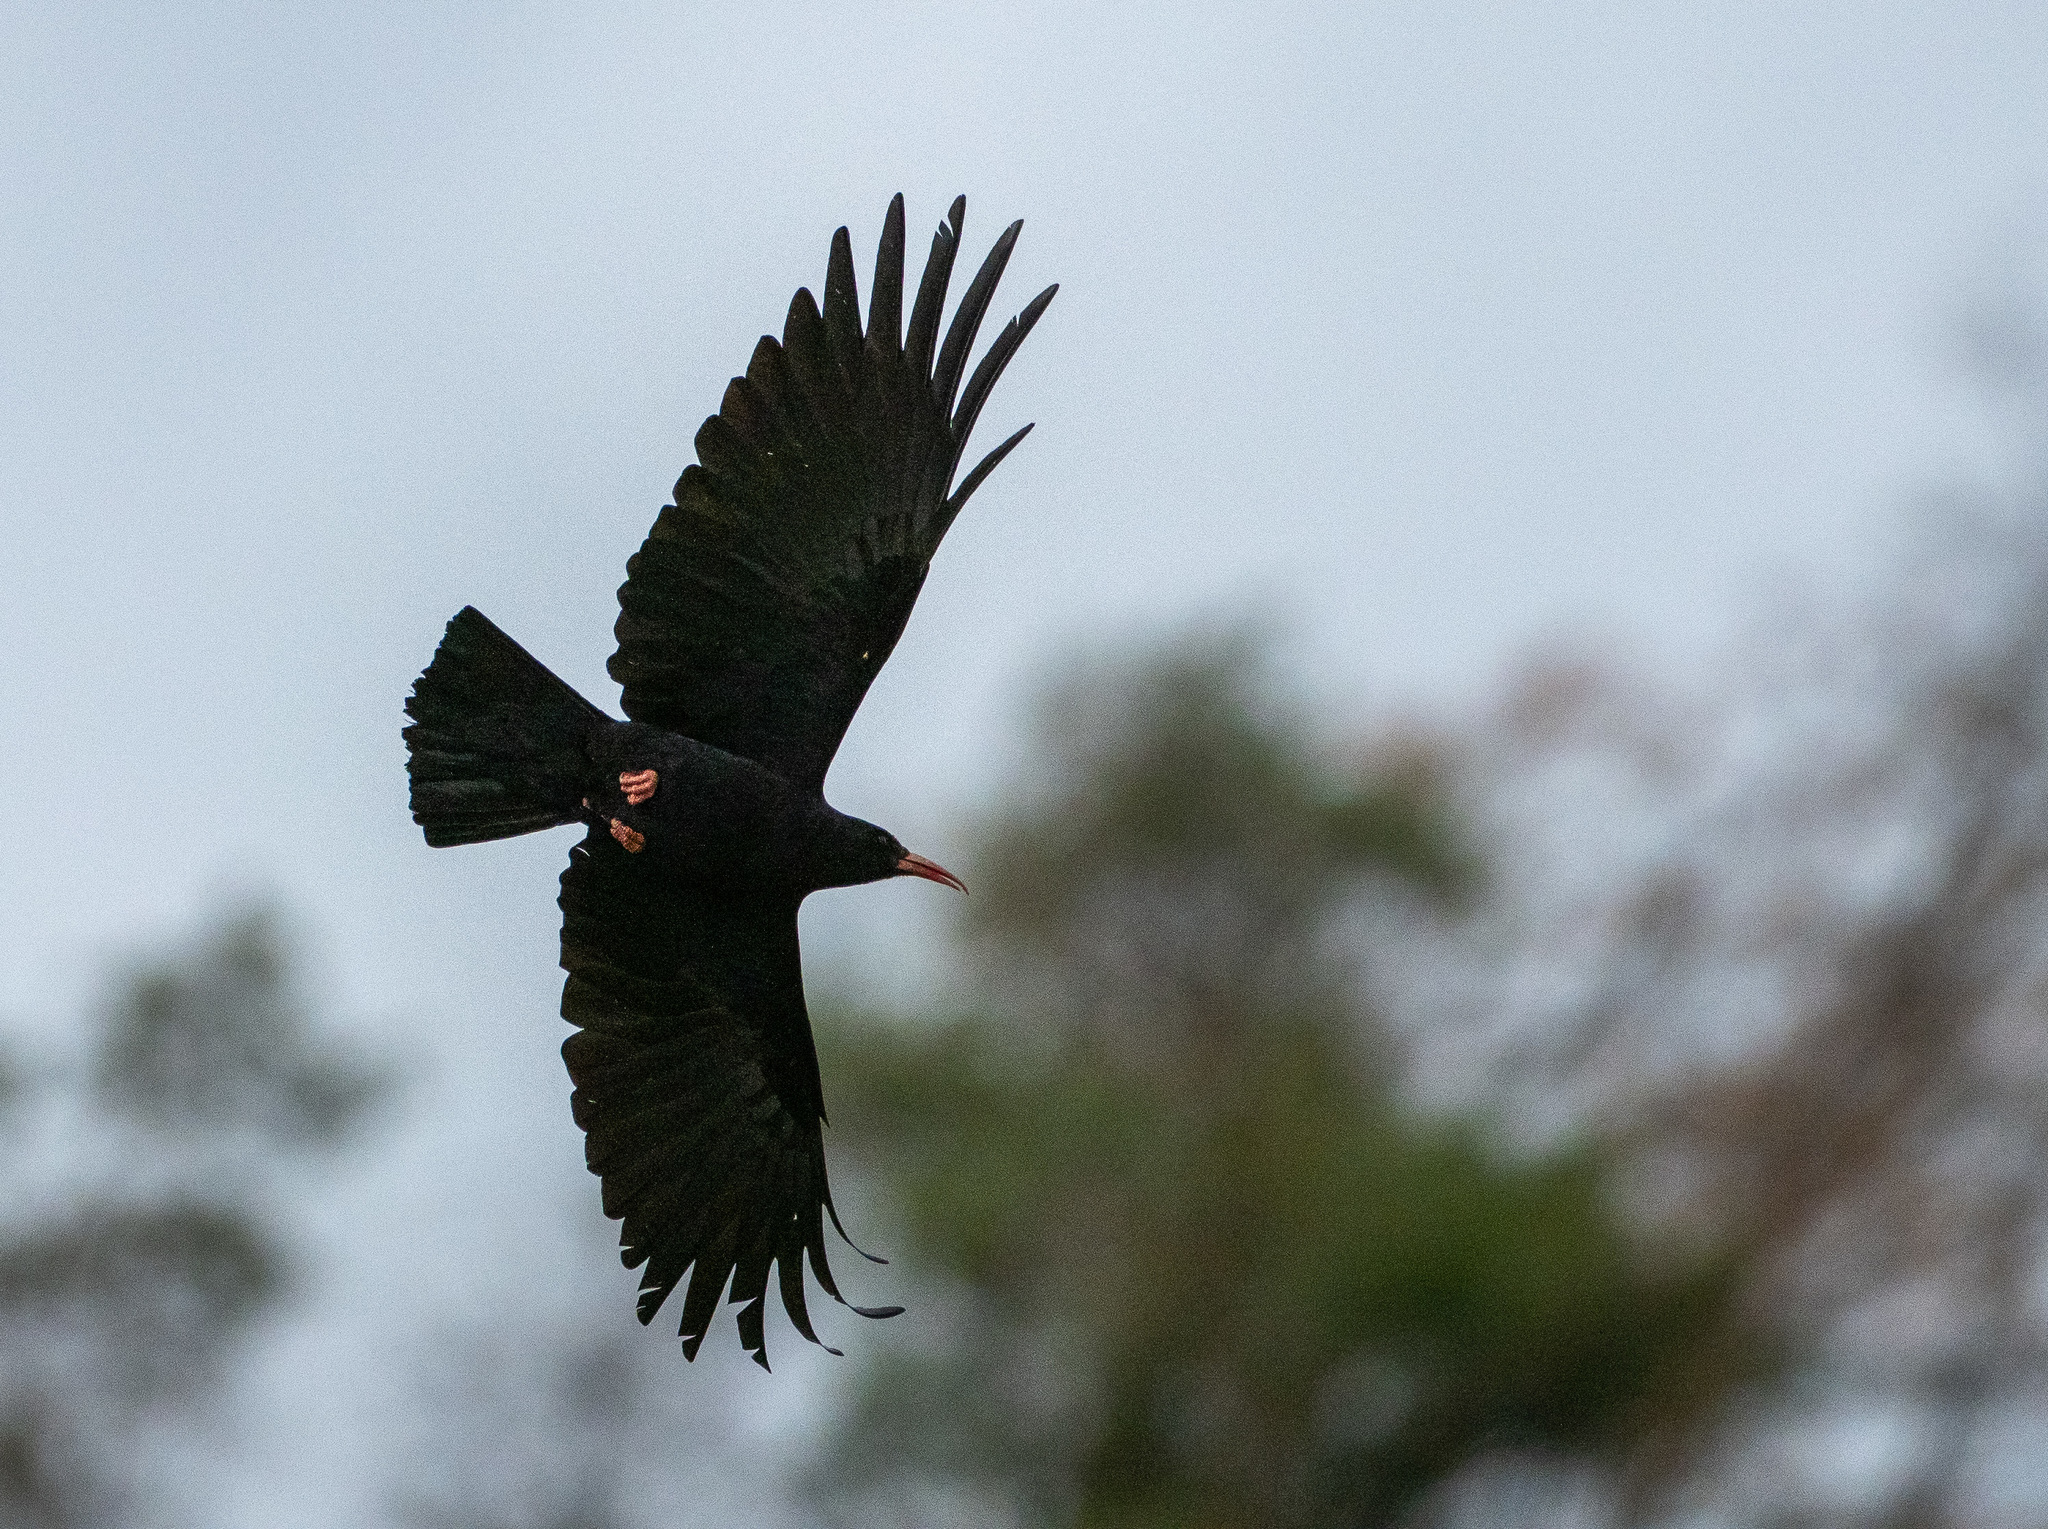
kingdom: Animalia
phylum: Chordata
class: Aves
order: Passeriformes
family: Corvidae
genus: Pyrrhocorax
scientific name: Pyrrhocorax pyrrhocorax
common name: Red-billed chough
